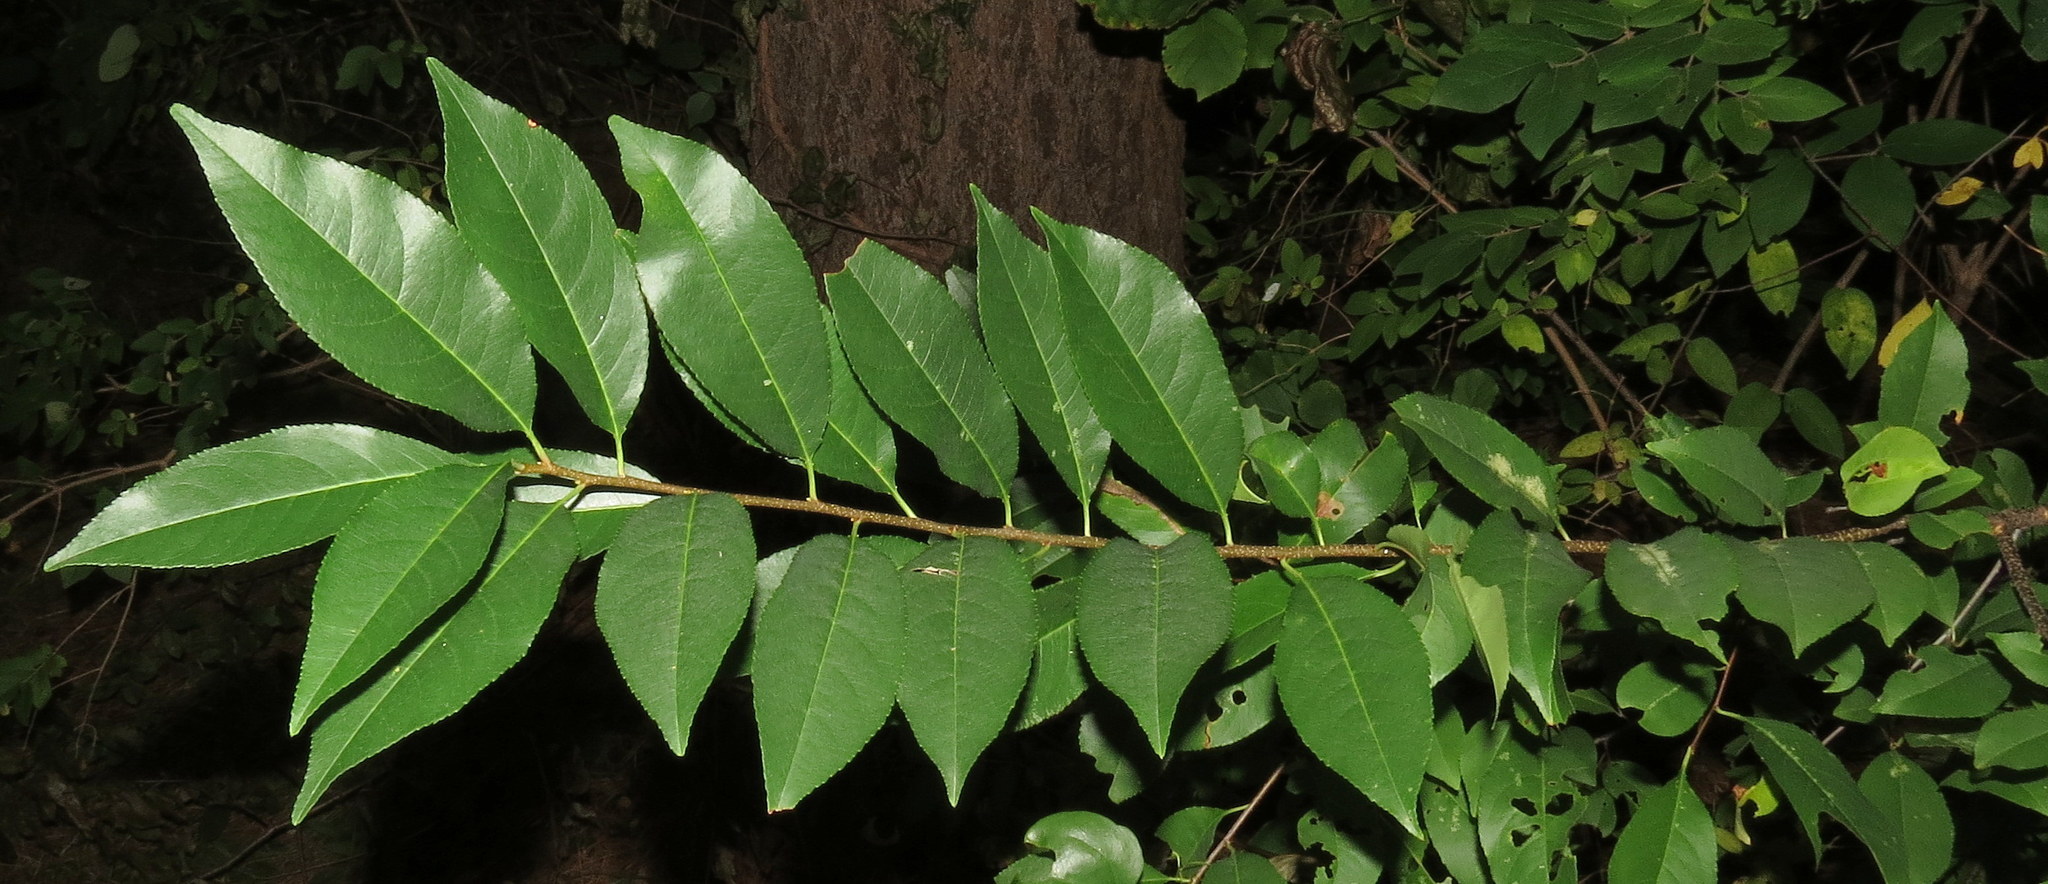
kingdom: Plantae
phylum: Tracheophyta
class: Magnoliopsida
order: Rosales
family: Rosaceae
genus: Prunus
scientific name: Prunus serotina
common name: Black cherry
